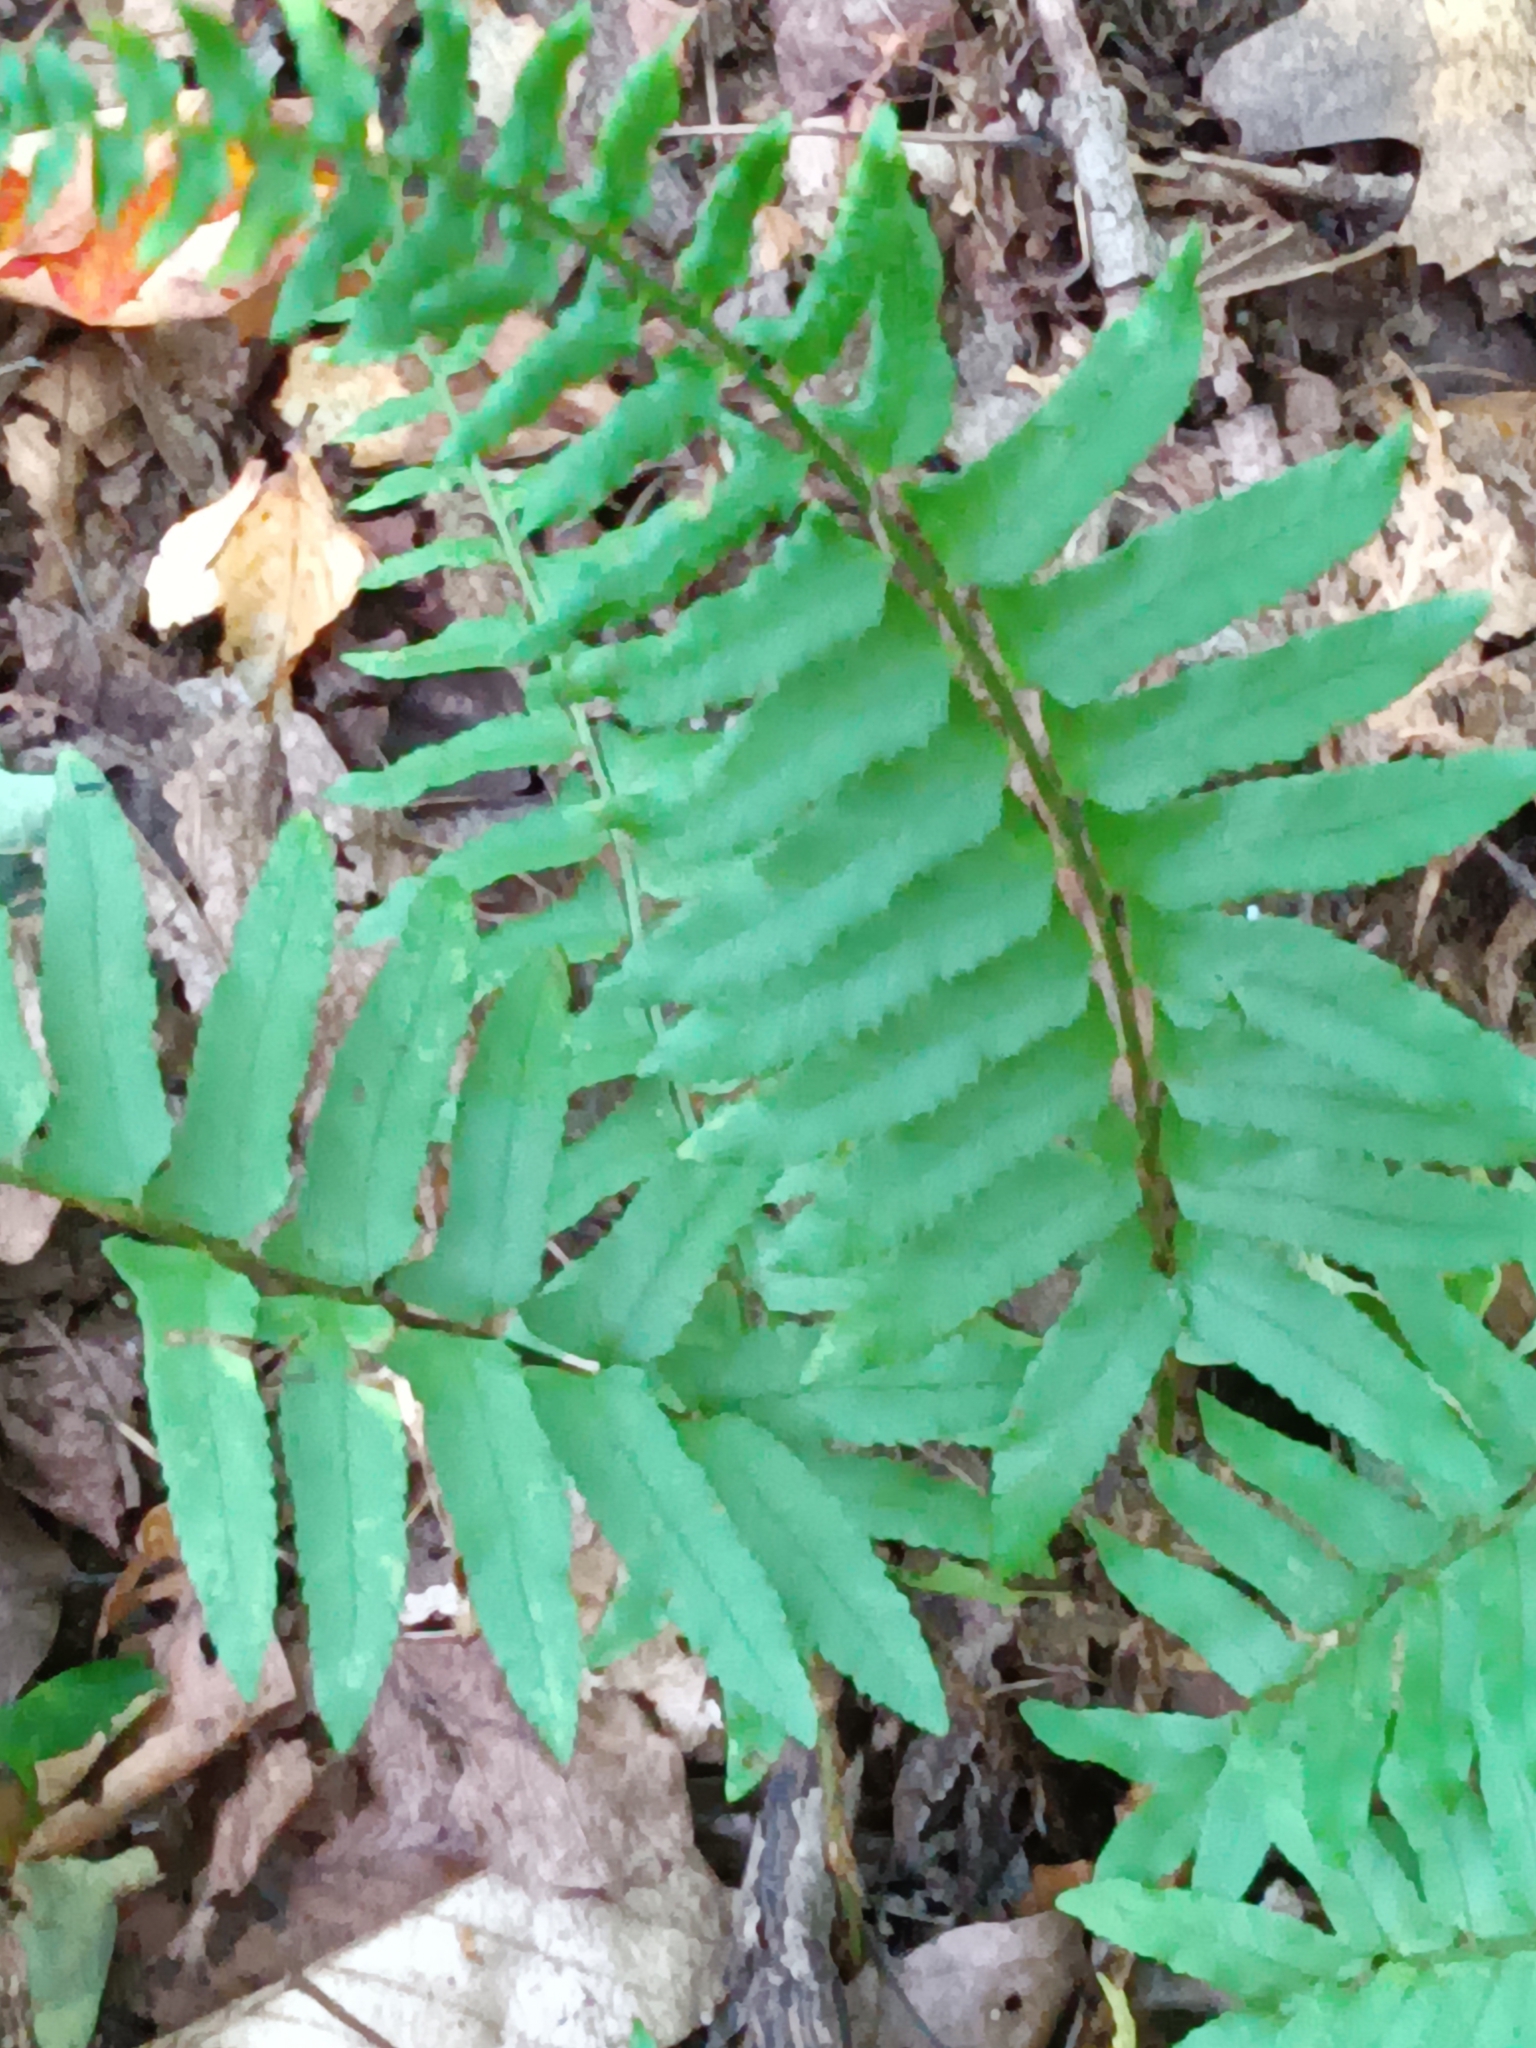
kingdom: Plantae
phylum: Tracheophyta
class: Polypodiopsida
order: Polypodiales
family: Dryopteridaceae
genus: Polystichum
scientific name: Polystichum acrostichoides
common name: Christmas fern
